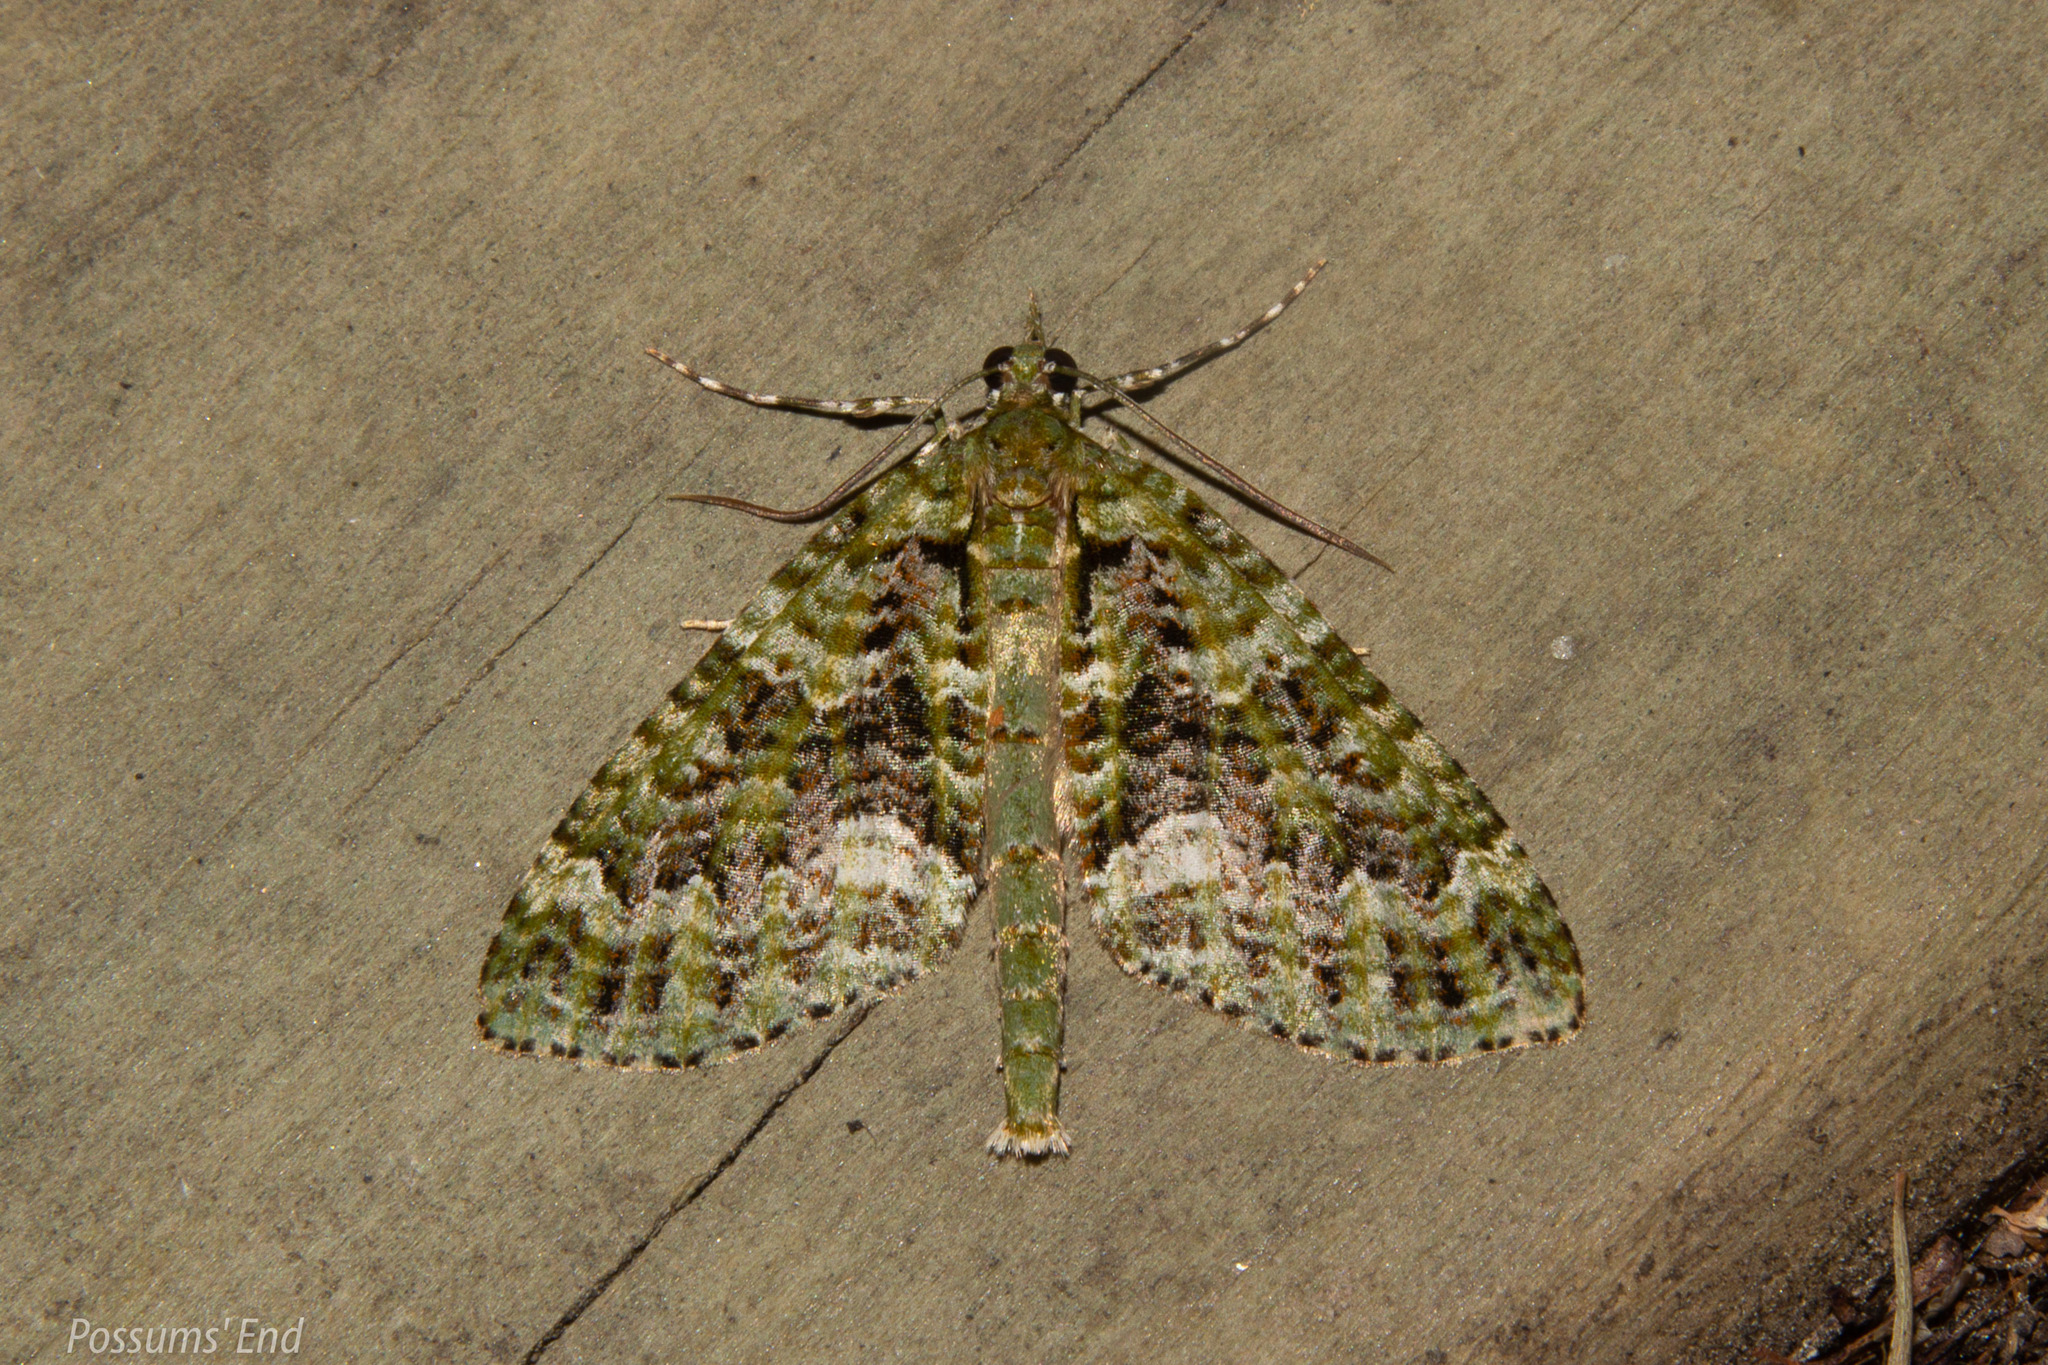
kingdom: Animalia
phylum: Arthropoda
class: Insecta
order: Lepidoptera
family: Geometridae
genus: Tatosoma
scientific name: Tatosoma agrionata
